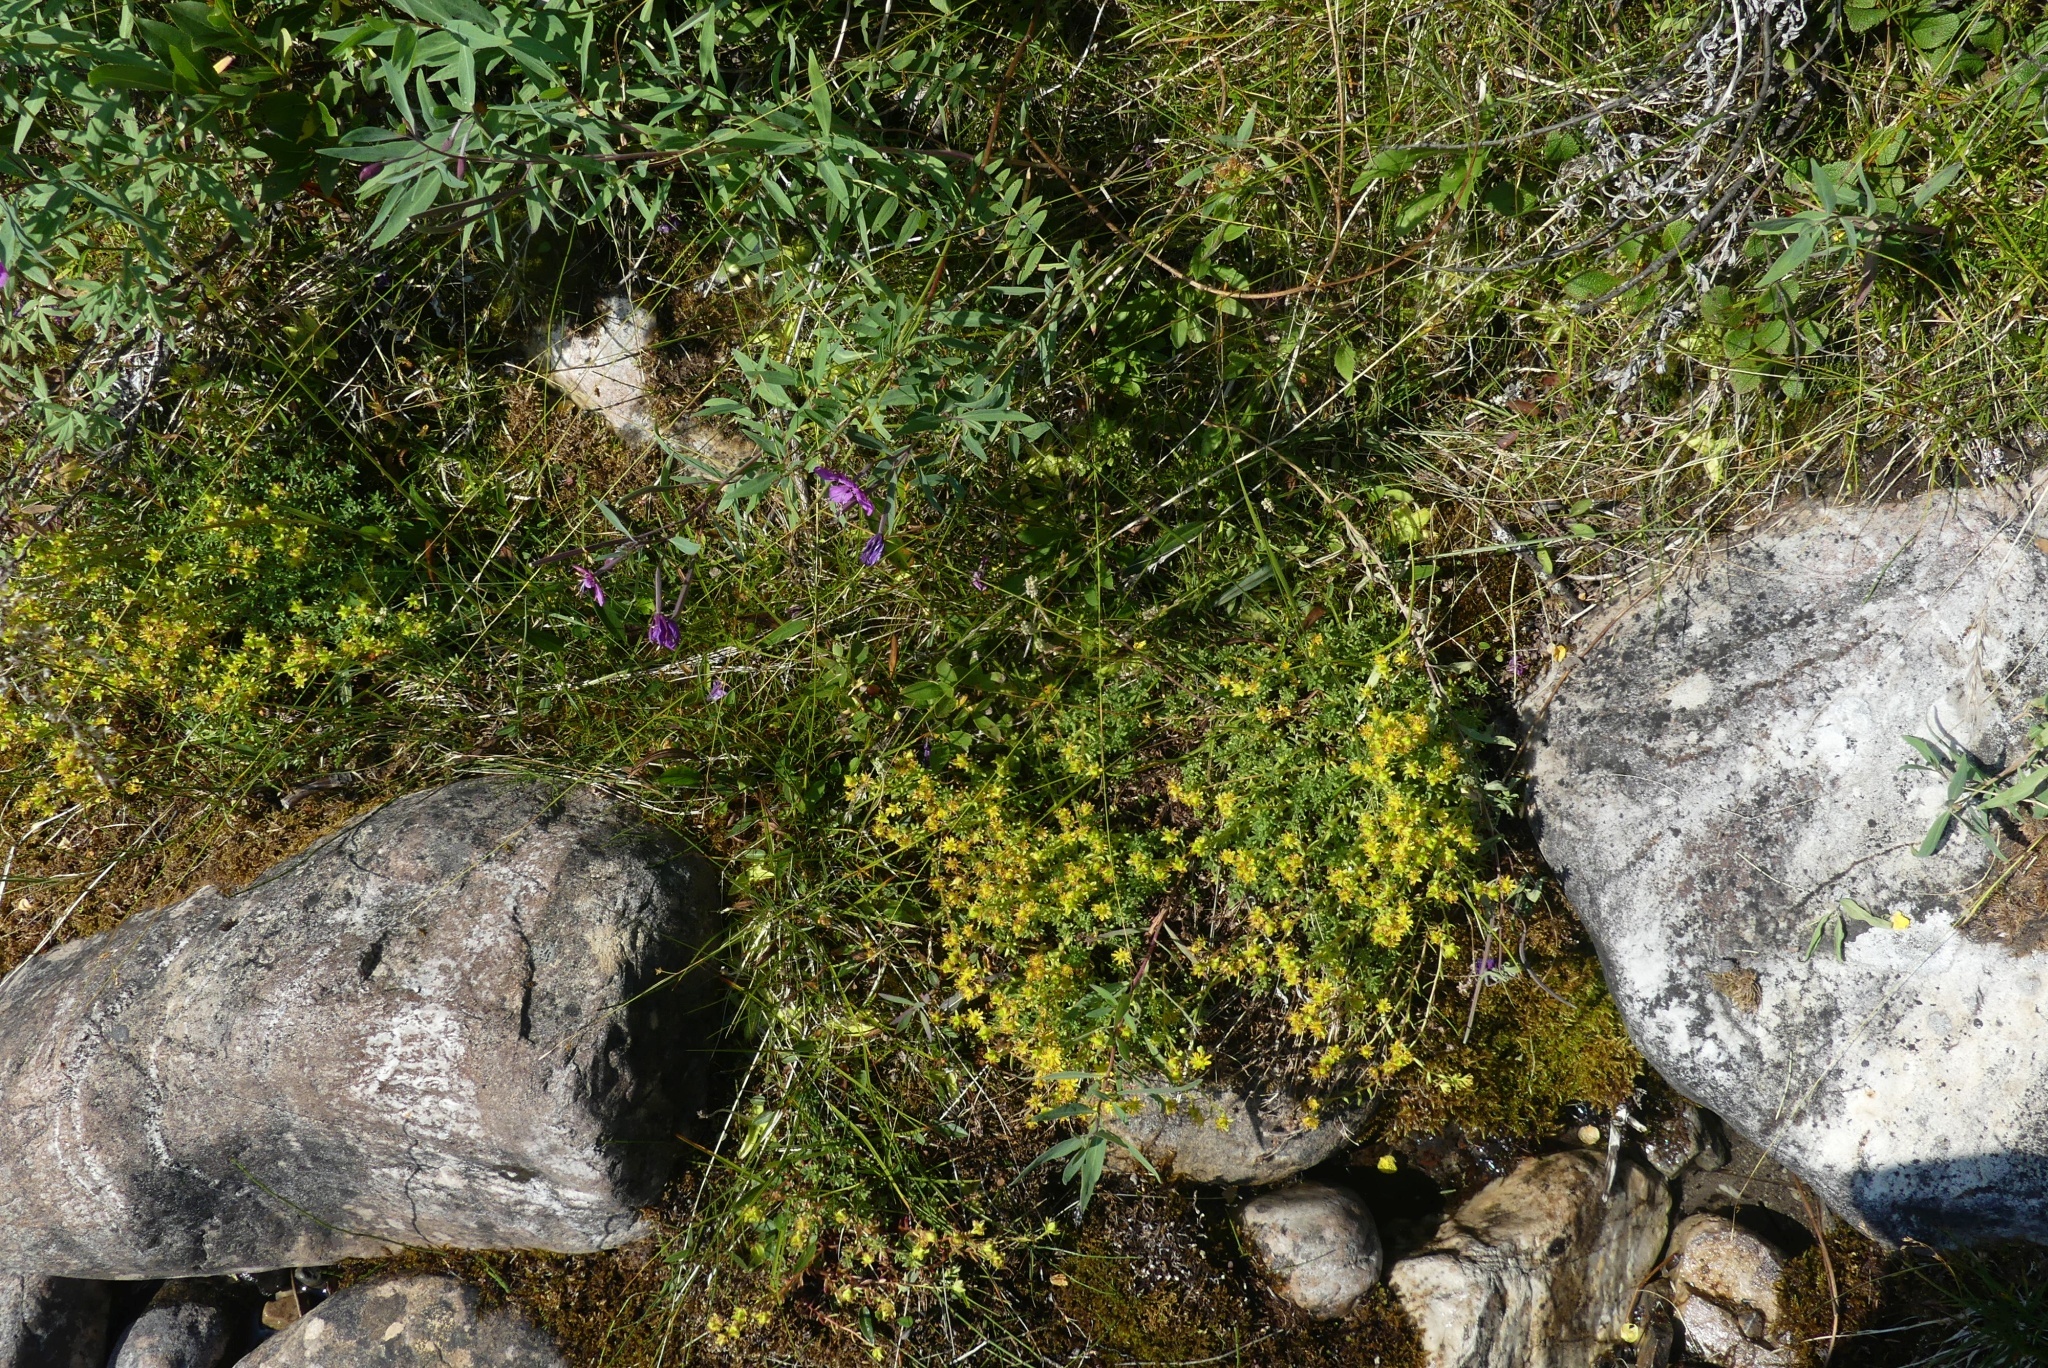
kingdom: Plantae
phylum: Tracheophyta
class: Magnoliopsida
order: Saxifragales
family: Saxifragaceae
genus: Saxifraga
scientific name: Saxifraga aizoides
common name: Yellow mountain saxifrage
